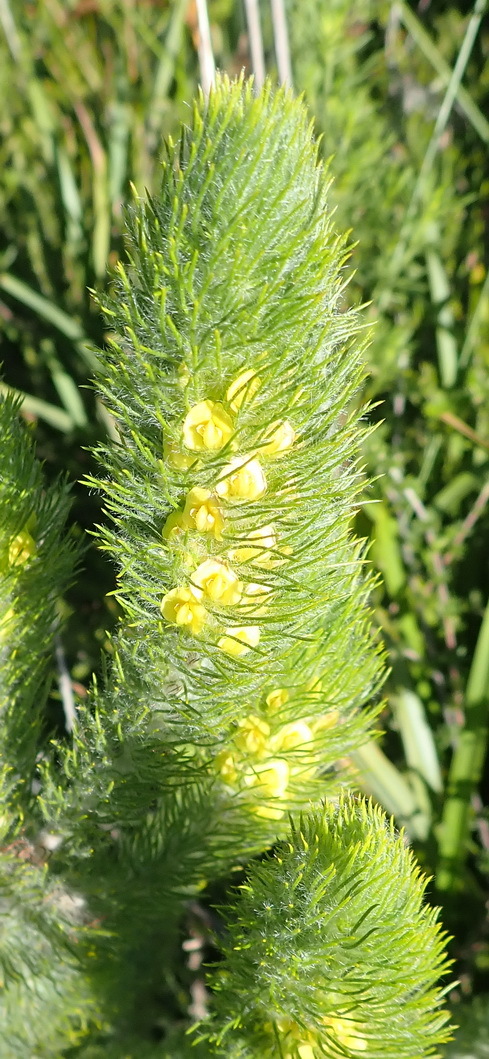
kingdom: Plantae
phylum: Tracheophyta
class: Magnoliopsida
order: Fabales
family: Fabaceae
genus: Aspalathus
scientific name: Aspalathus alopecurus
